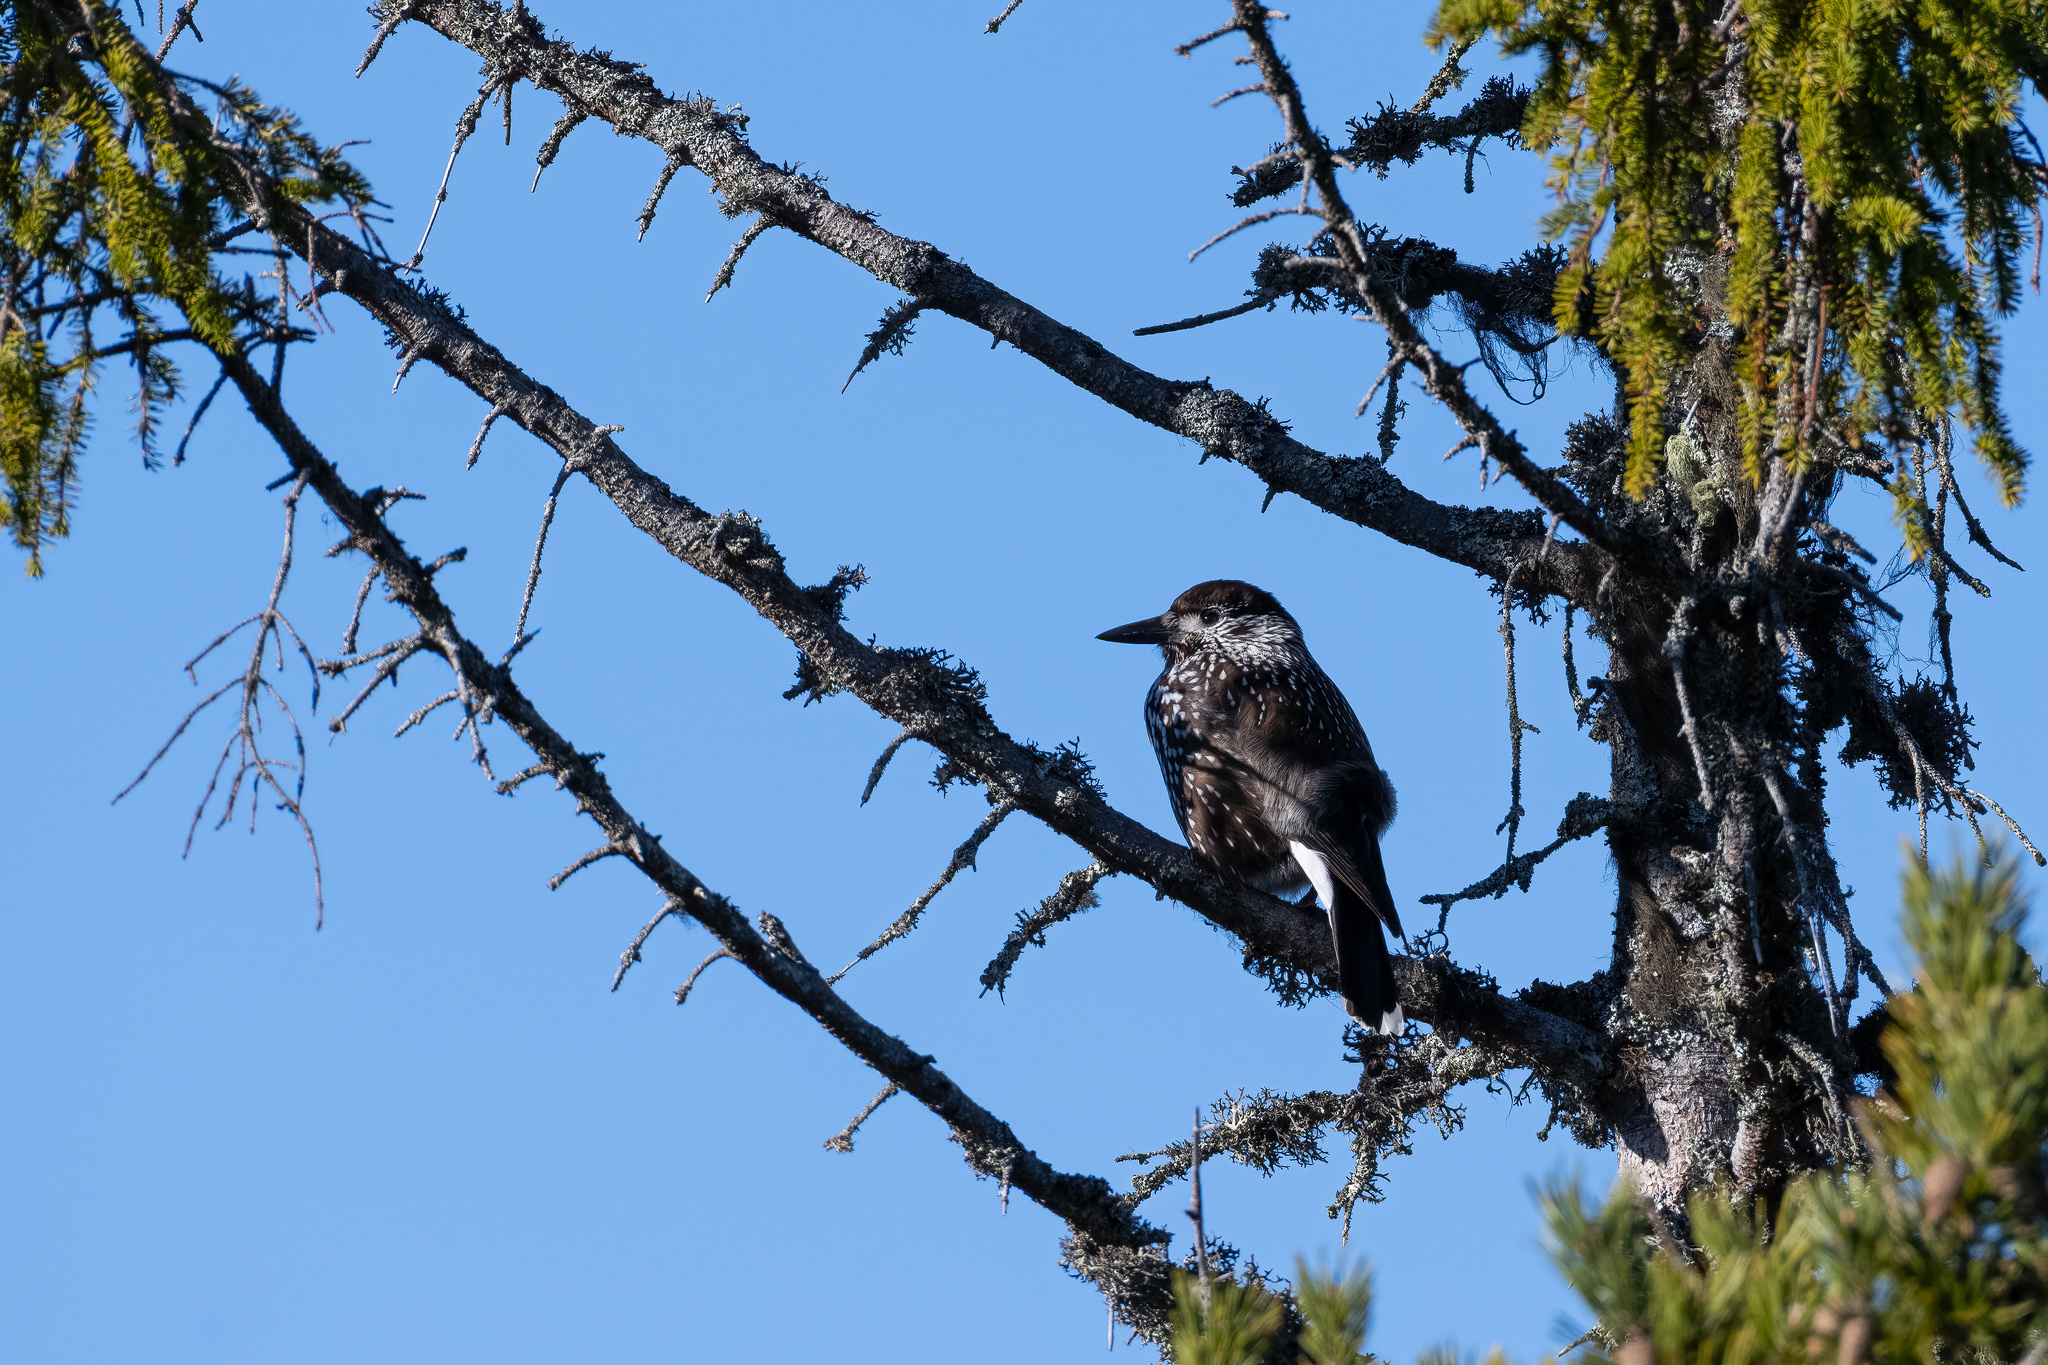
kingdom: Animalia
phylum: Chordata
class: Aves
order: Passeriformes
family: Corvidae
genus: Nucifraga
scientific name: Nucifraga caryocatactes
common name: Spotted nutcracker
